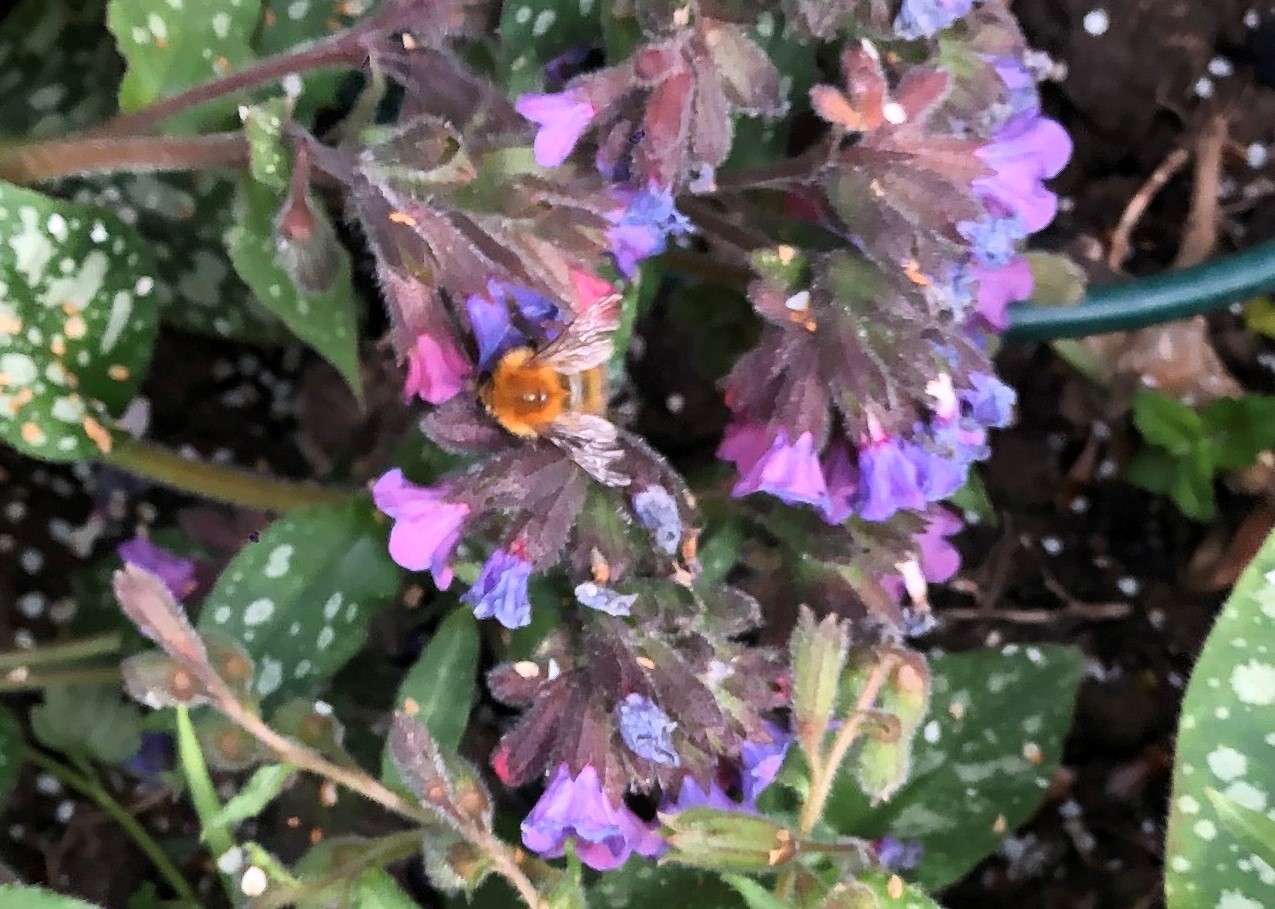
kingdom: Animalia
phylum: Arthropoda
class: Insecta
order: Hymenoptera
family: Apidae
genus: Bombus
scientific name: Bombus pascuorum
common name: Common carder bee
